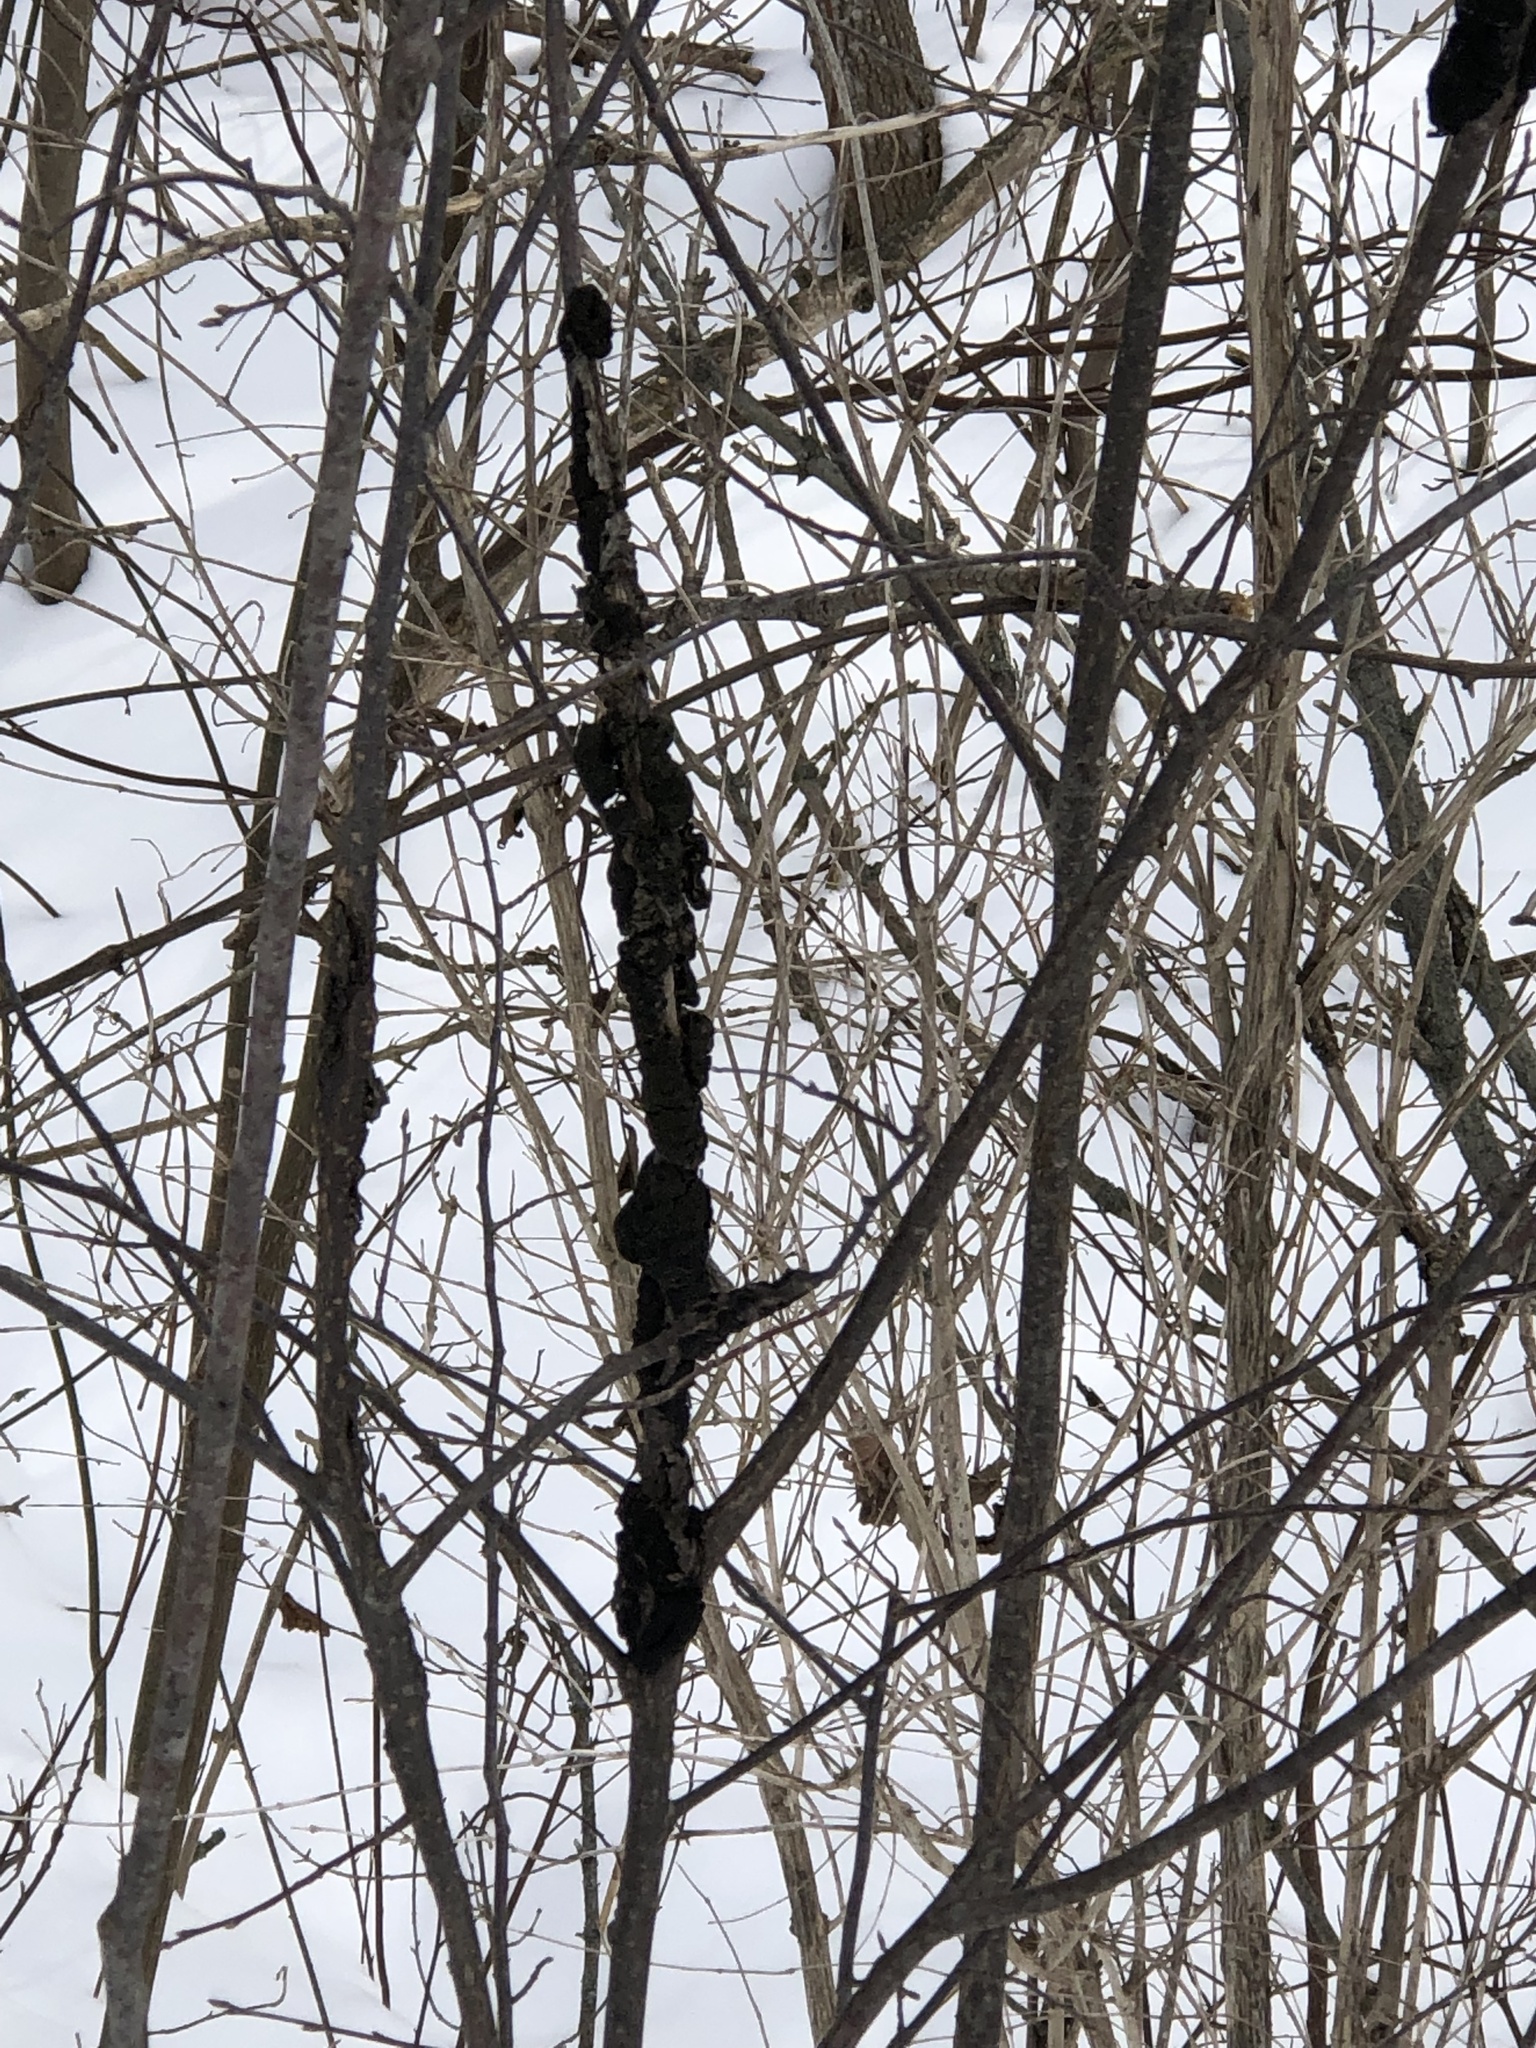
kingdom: Fungi
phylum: Ascomycota
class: Dothideomycetes
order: Venturiales
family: Venturiaceae
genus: Apiosporina
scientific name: Apiosporina morbosa
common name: Black knot
